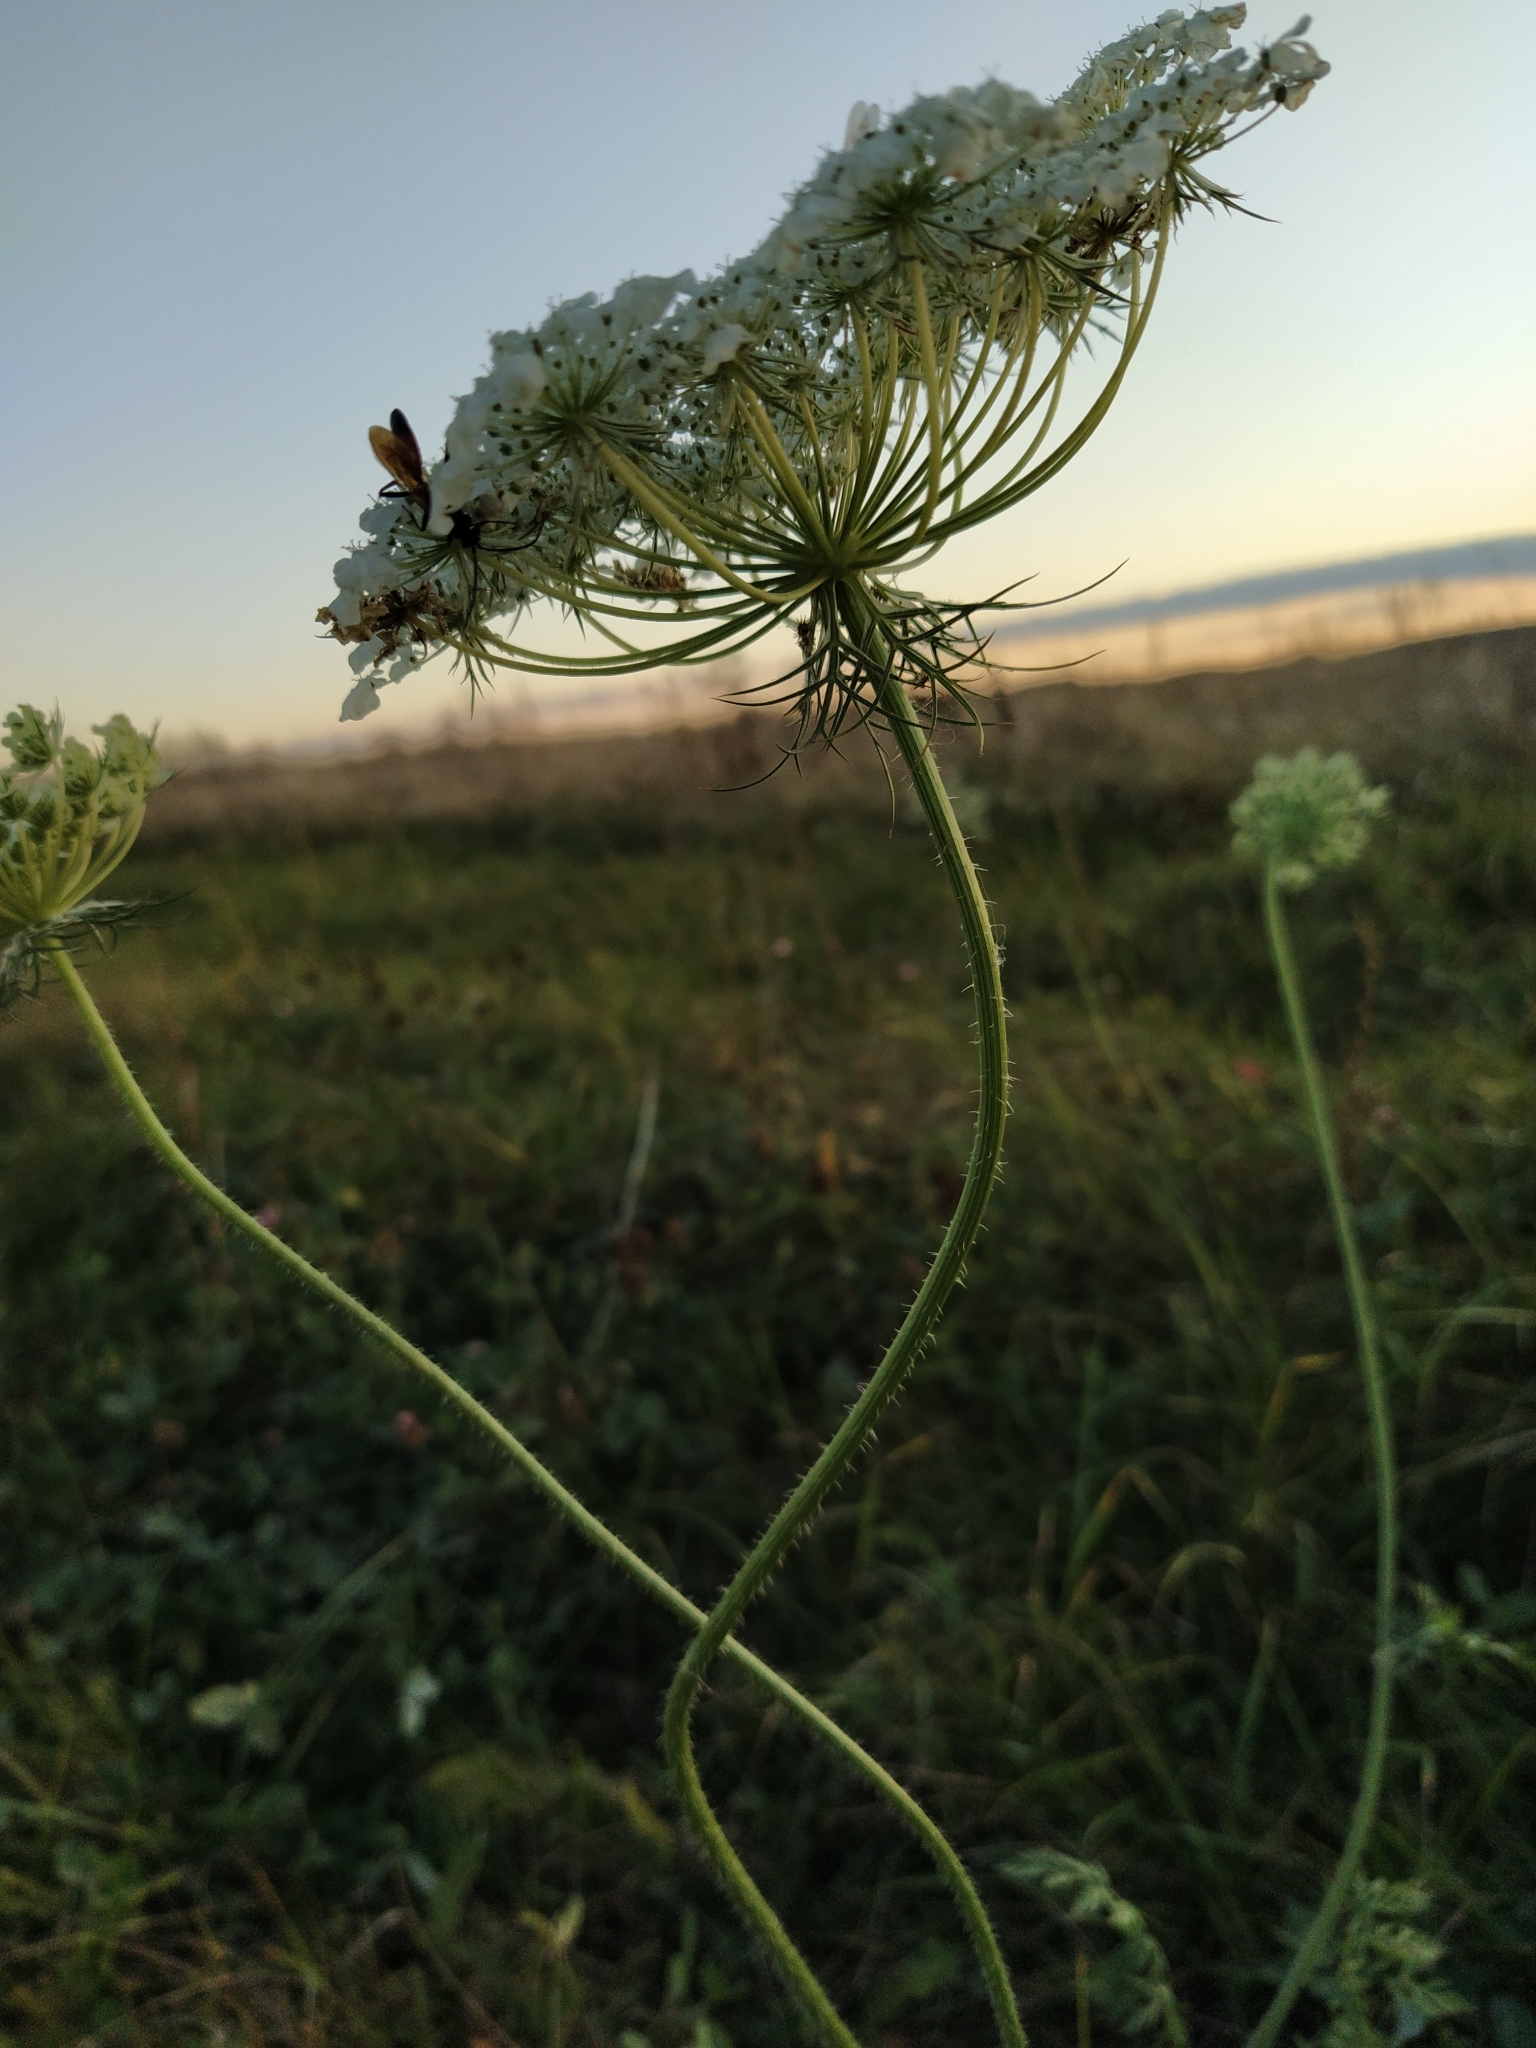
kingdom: Plantae
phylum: Tracheophyta
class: Magnoliopsida
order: Apiales
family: Apiaceae
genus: Daucus
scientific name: Daucus carota
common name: Wild carrot
